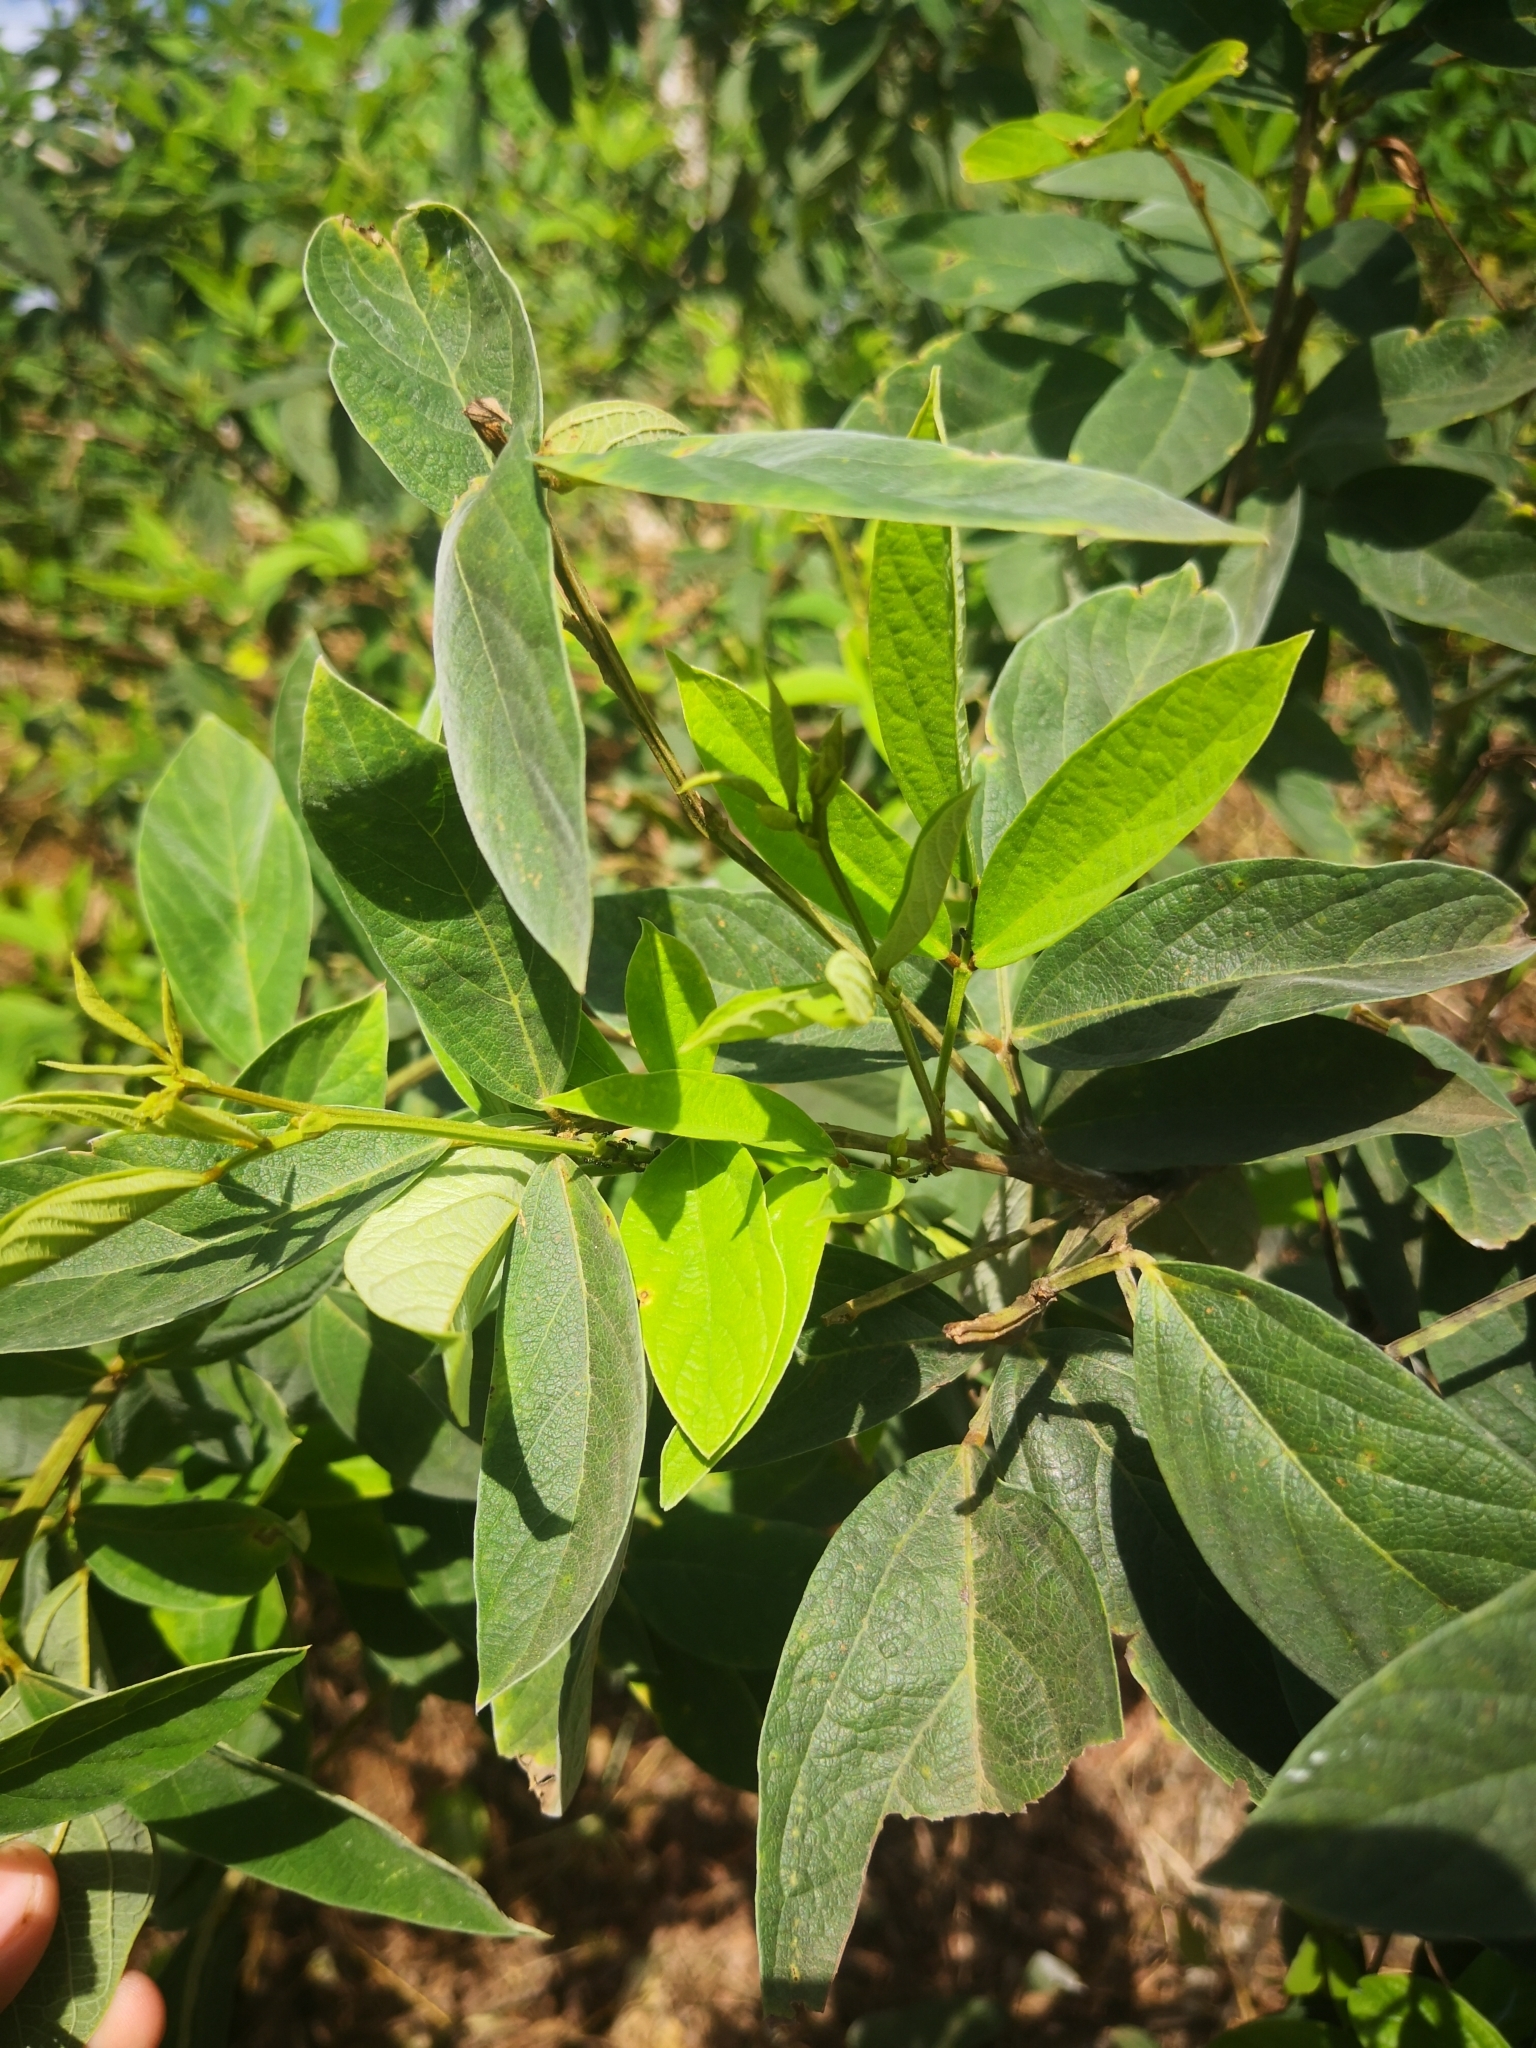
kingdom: Plantae
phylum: Tracheophyta
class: Magnoliopsida
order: Fabales
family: Fabaceae
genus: Cajanus
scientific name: Cajanus cajan
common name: Pigeonpea
